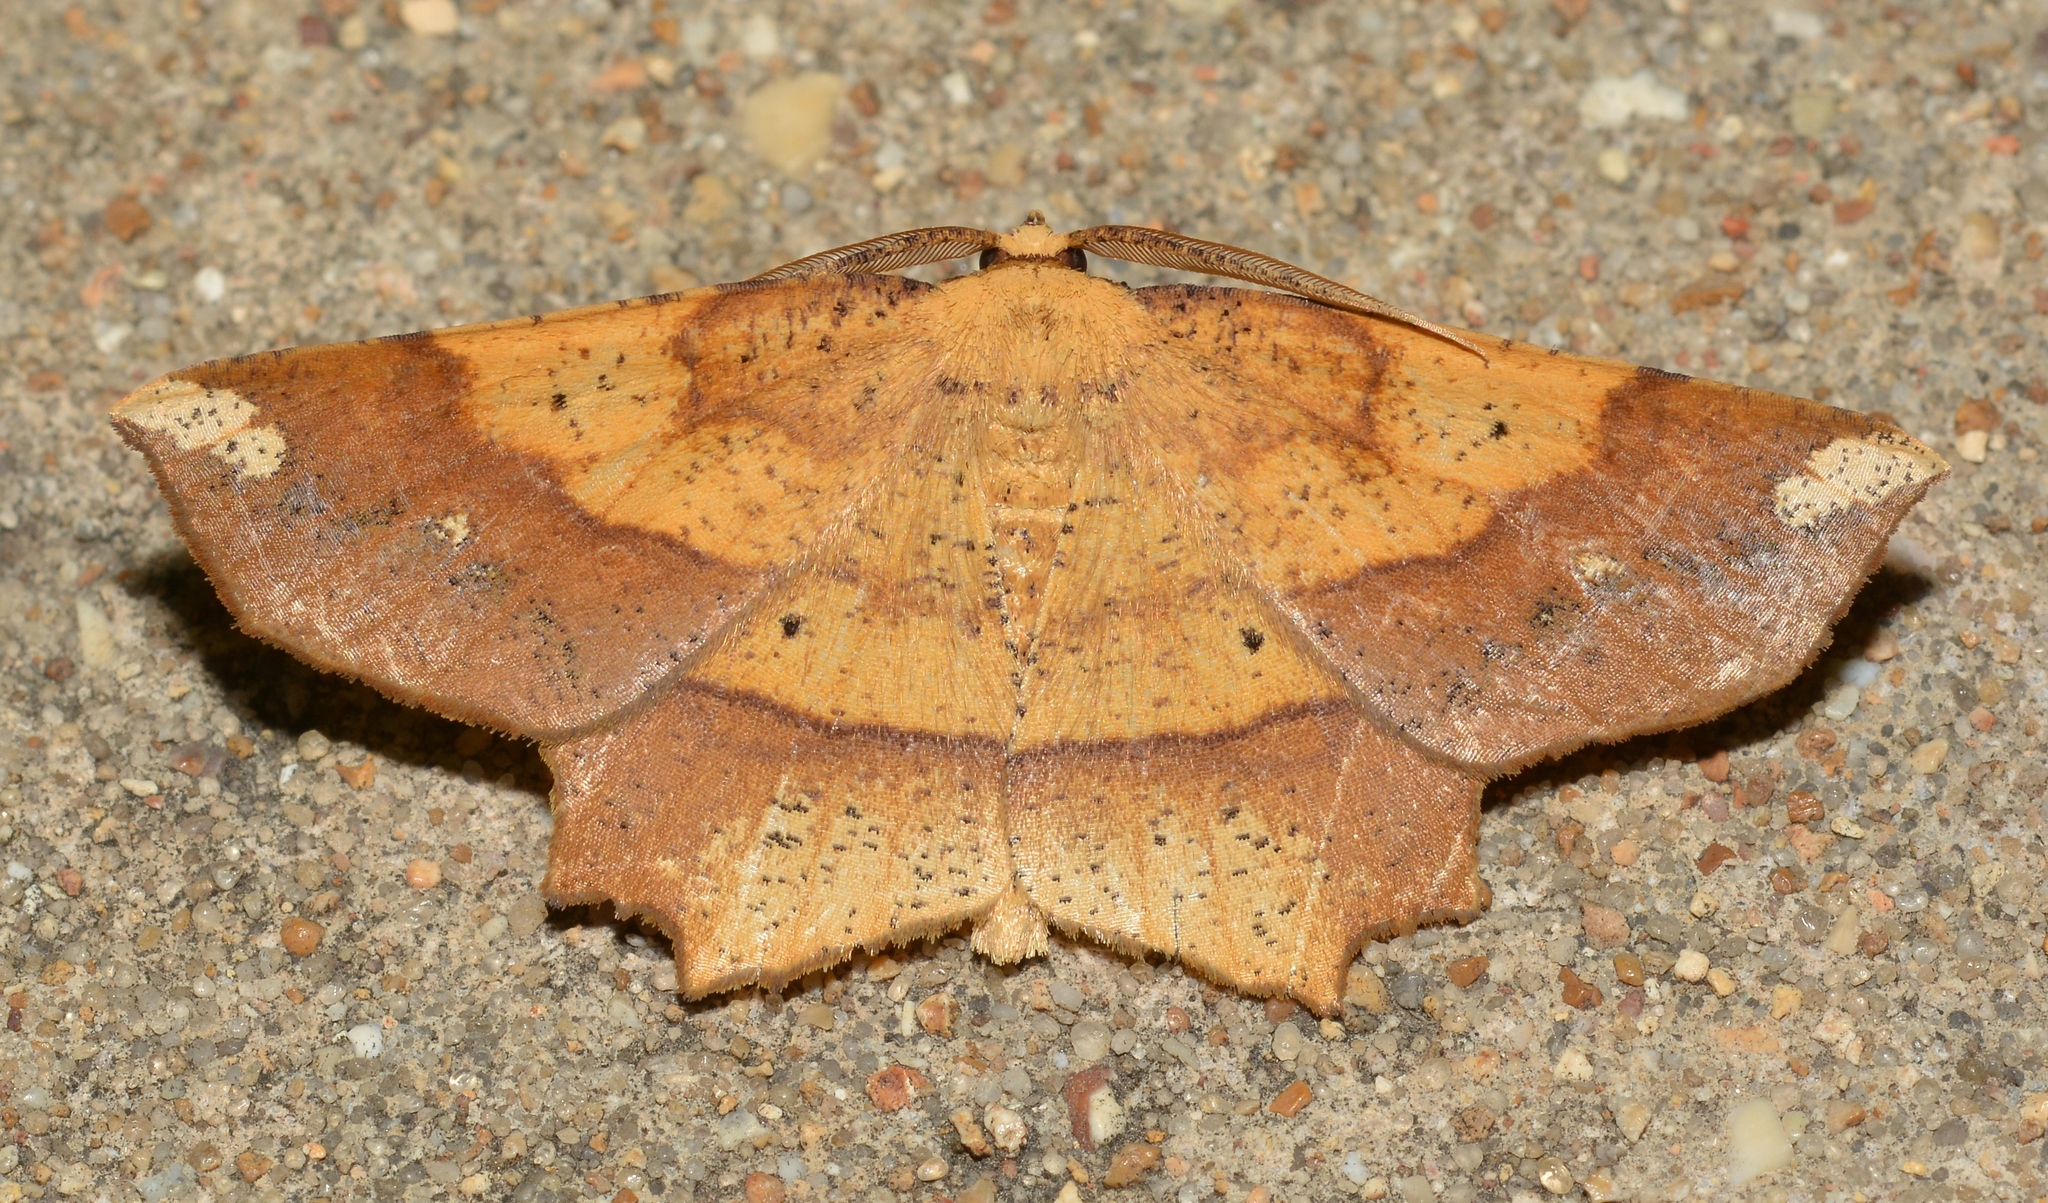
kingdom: Animalia
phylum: Arthropoda
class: Insecta
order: Lepidoptera
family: Geometridae
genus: Euchlaena
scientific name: Euchlaena amoenaria
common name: Deep yellow euchlaena
